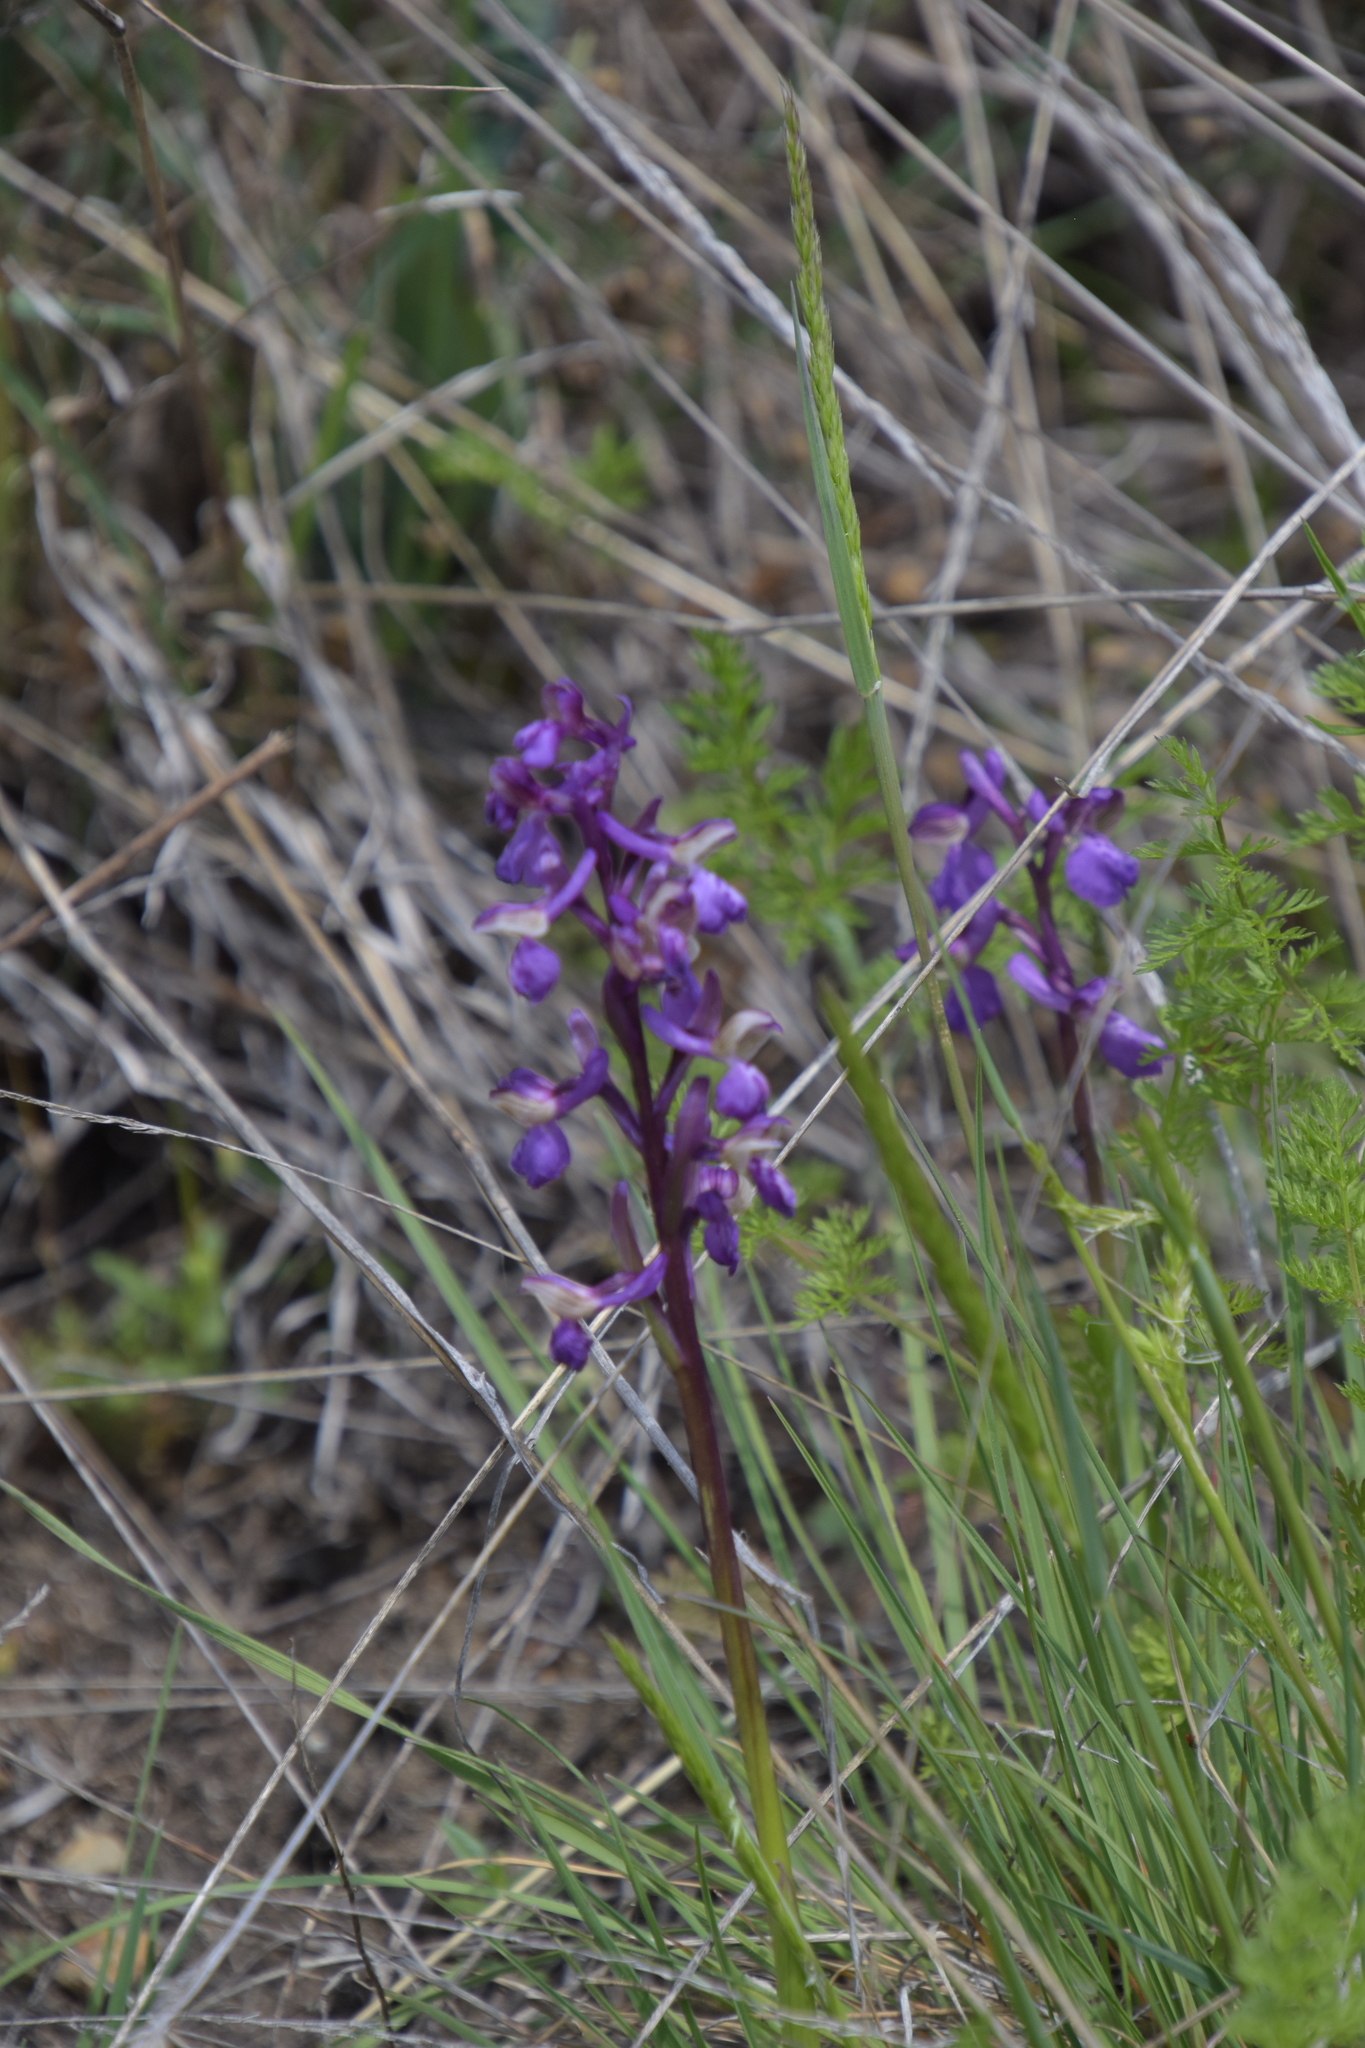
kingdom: Plantae
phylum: Tracheophyta
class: Liliopsida
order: Asparagales
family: Orchidaceae
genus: Anacamptis
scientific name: Anacamptis morio
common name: Green-winged orchid
